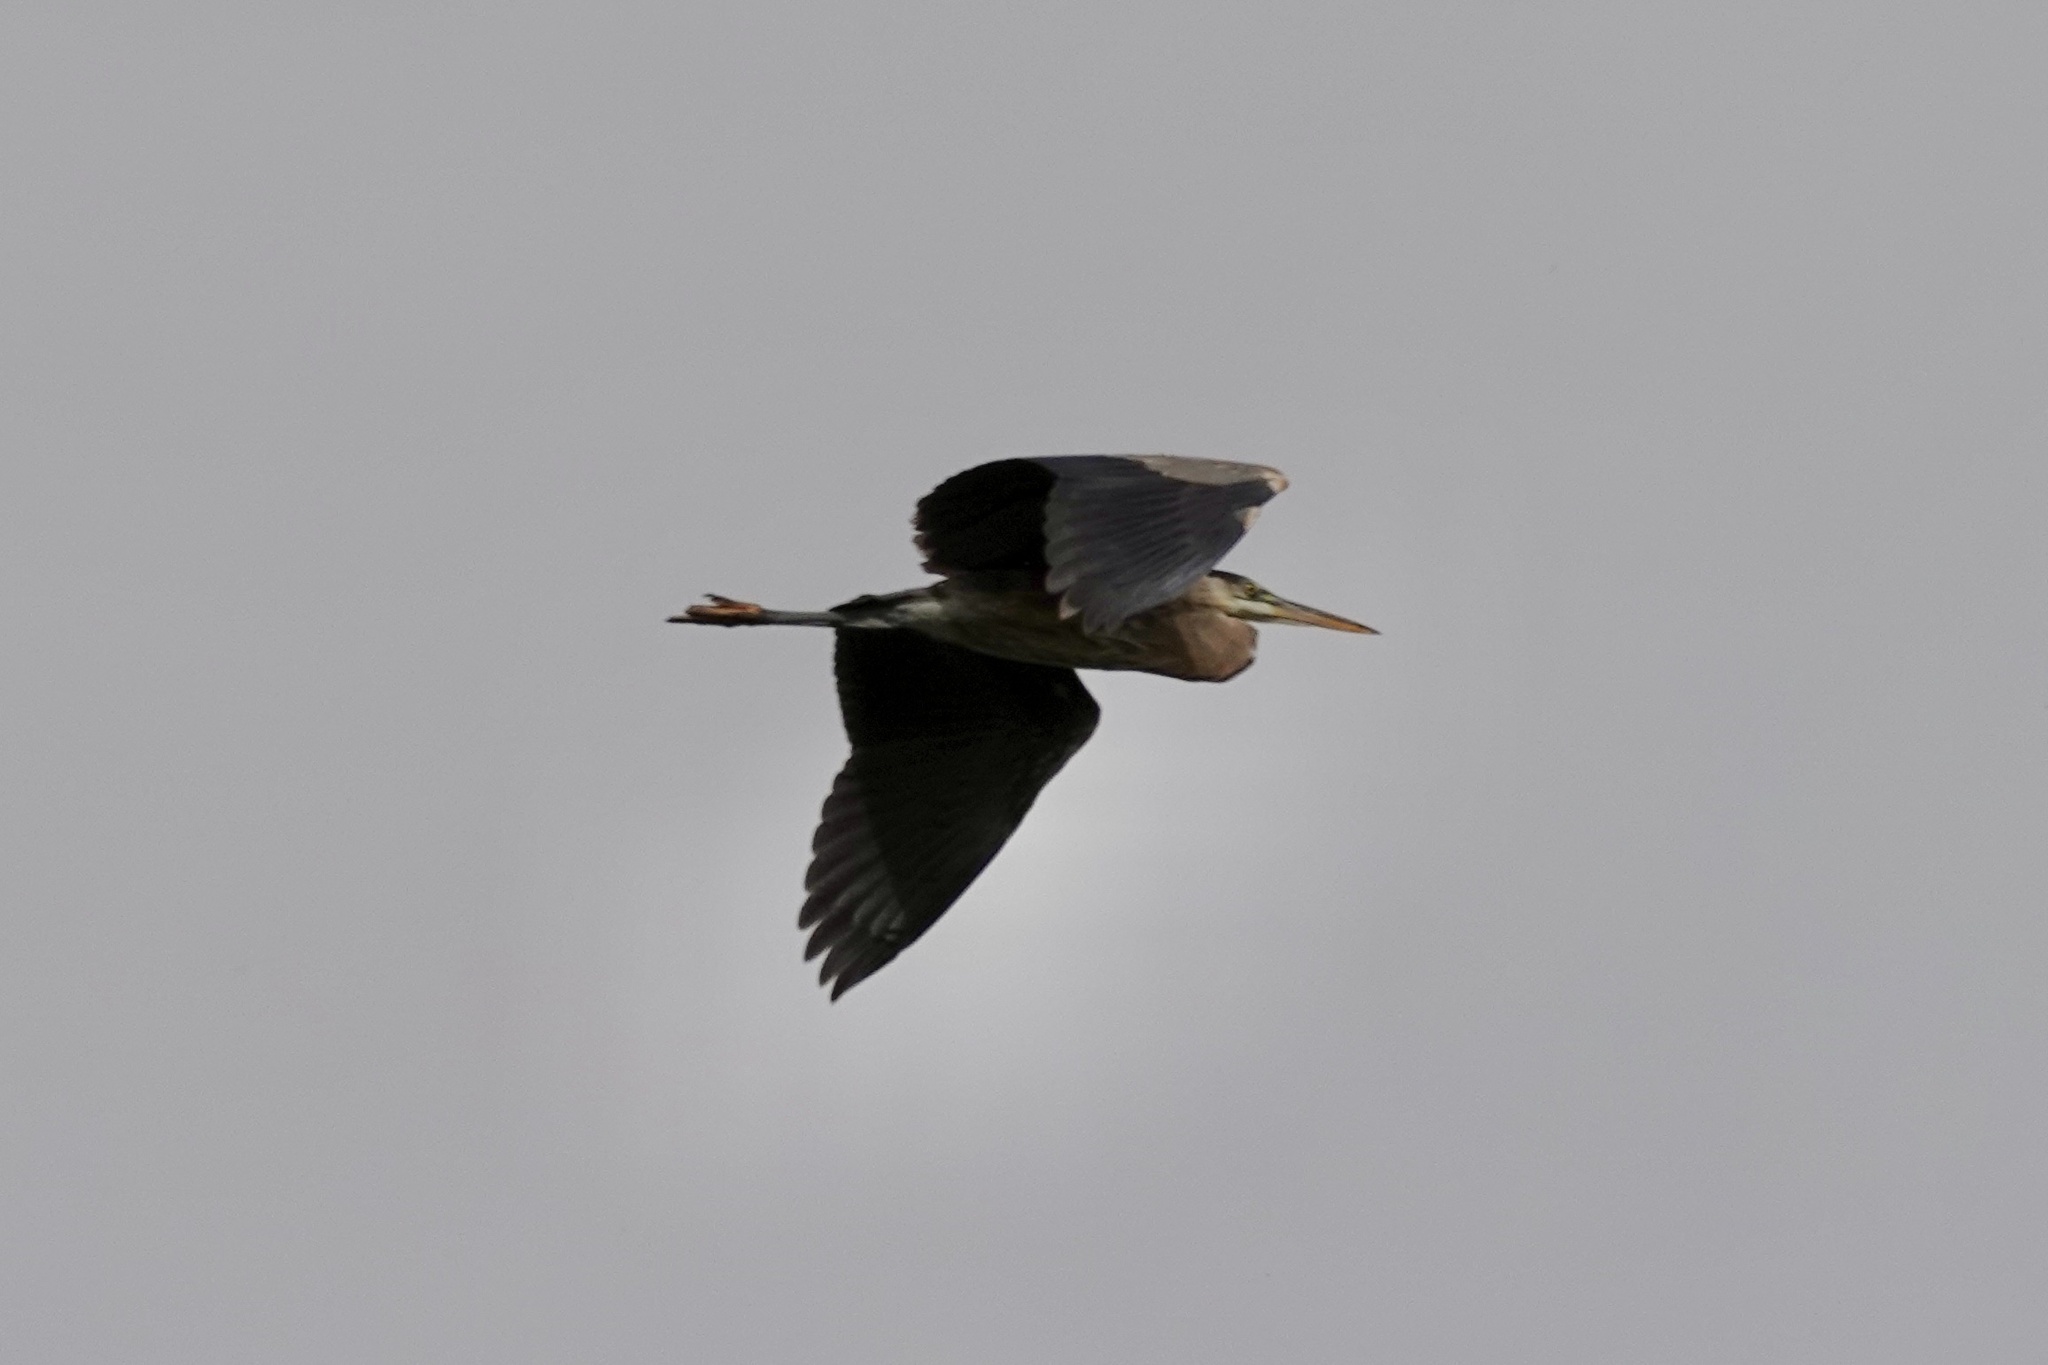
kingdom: Animalia
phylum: Chordata
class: Aves
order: Pelecaniformes
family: Ardeidae
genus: Ardea
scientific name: Ardea herodias
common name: Great blue heron
